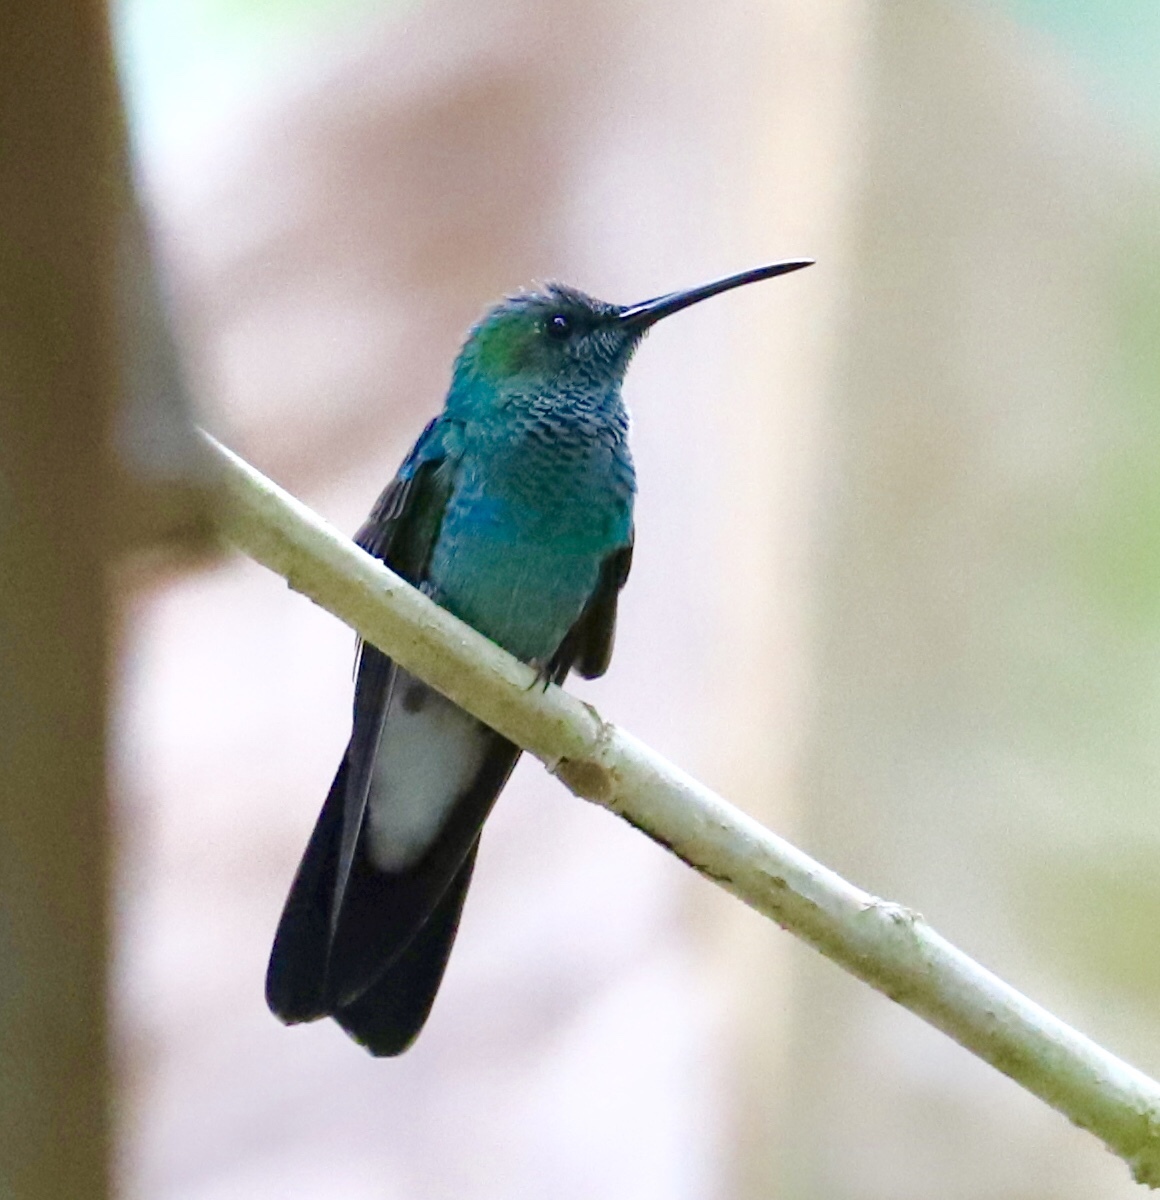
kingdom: Animalia
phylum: Chordata
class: Aves
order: Apodiformes
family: Trochilidae
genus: Chalybura
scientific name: Chalybura buffonii
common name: White-vented plumeleteer
